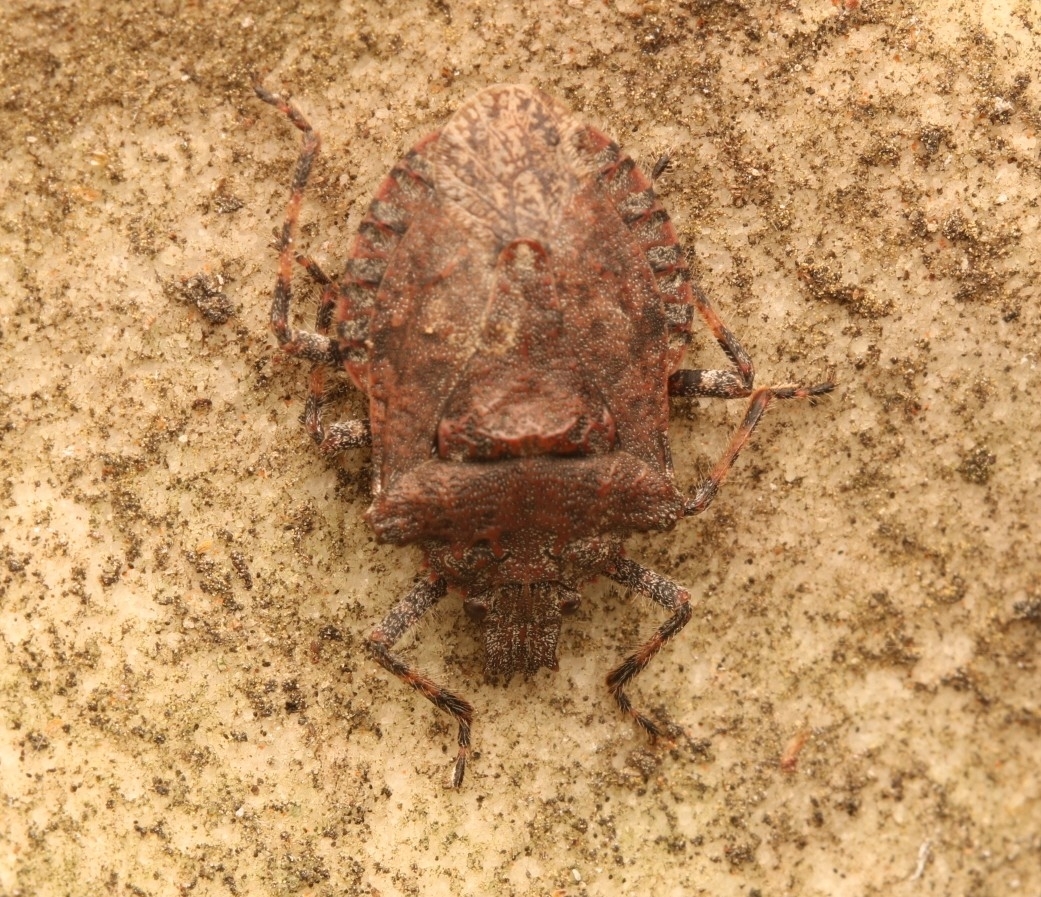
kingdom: Animalia
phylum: Arthropoda
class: Insecta
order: Hemiptera
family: Pentatomidae
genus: Brochymena
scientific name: Brochymena arborea
